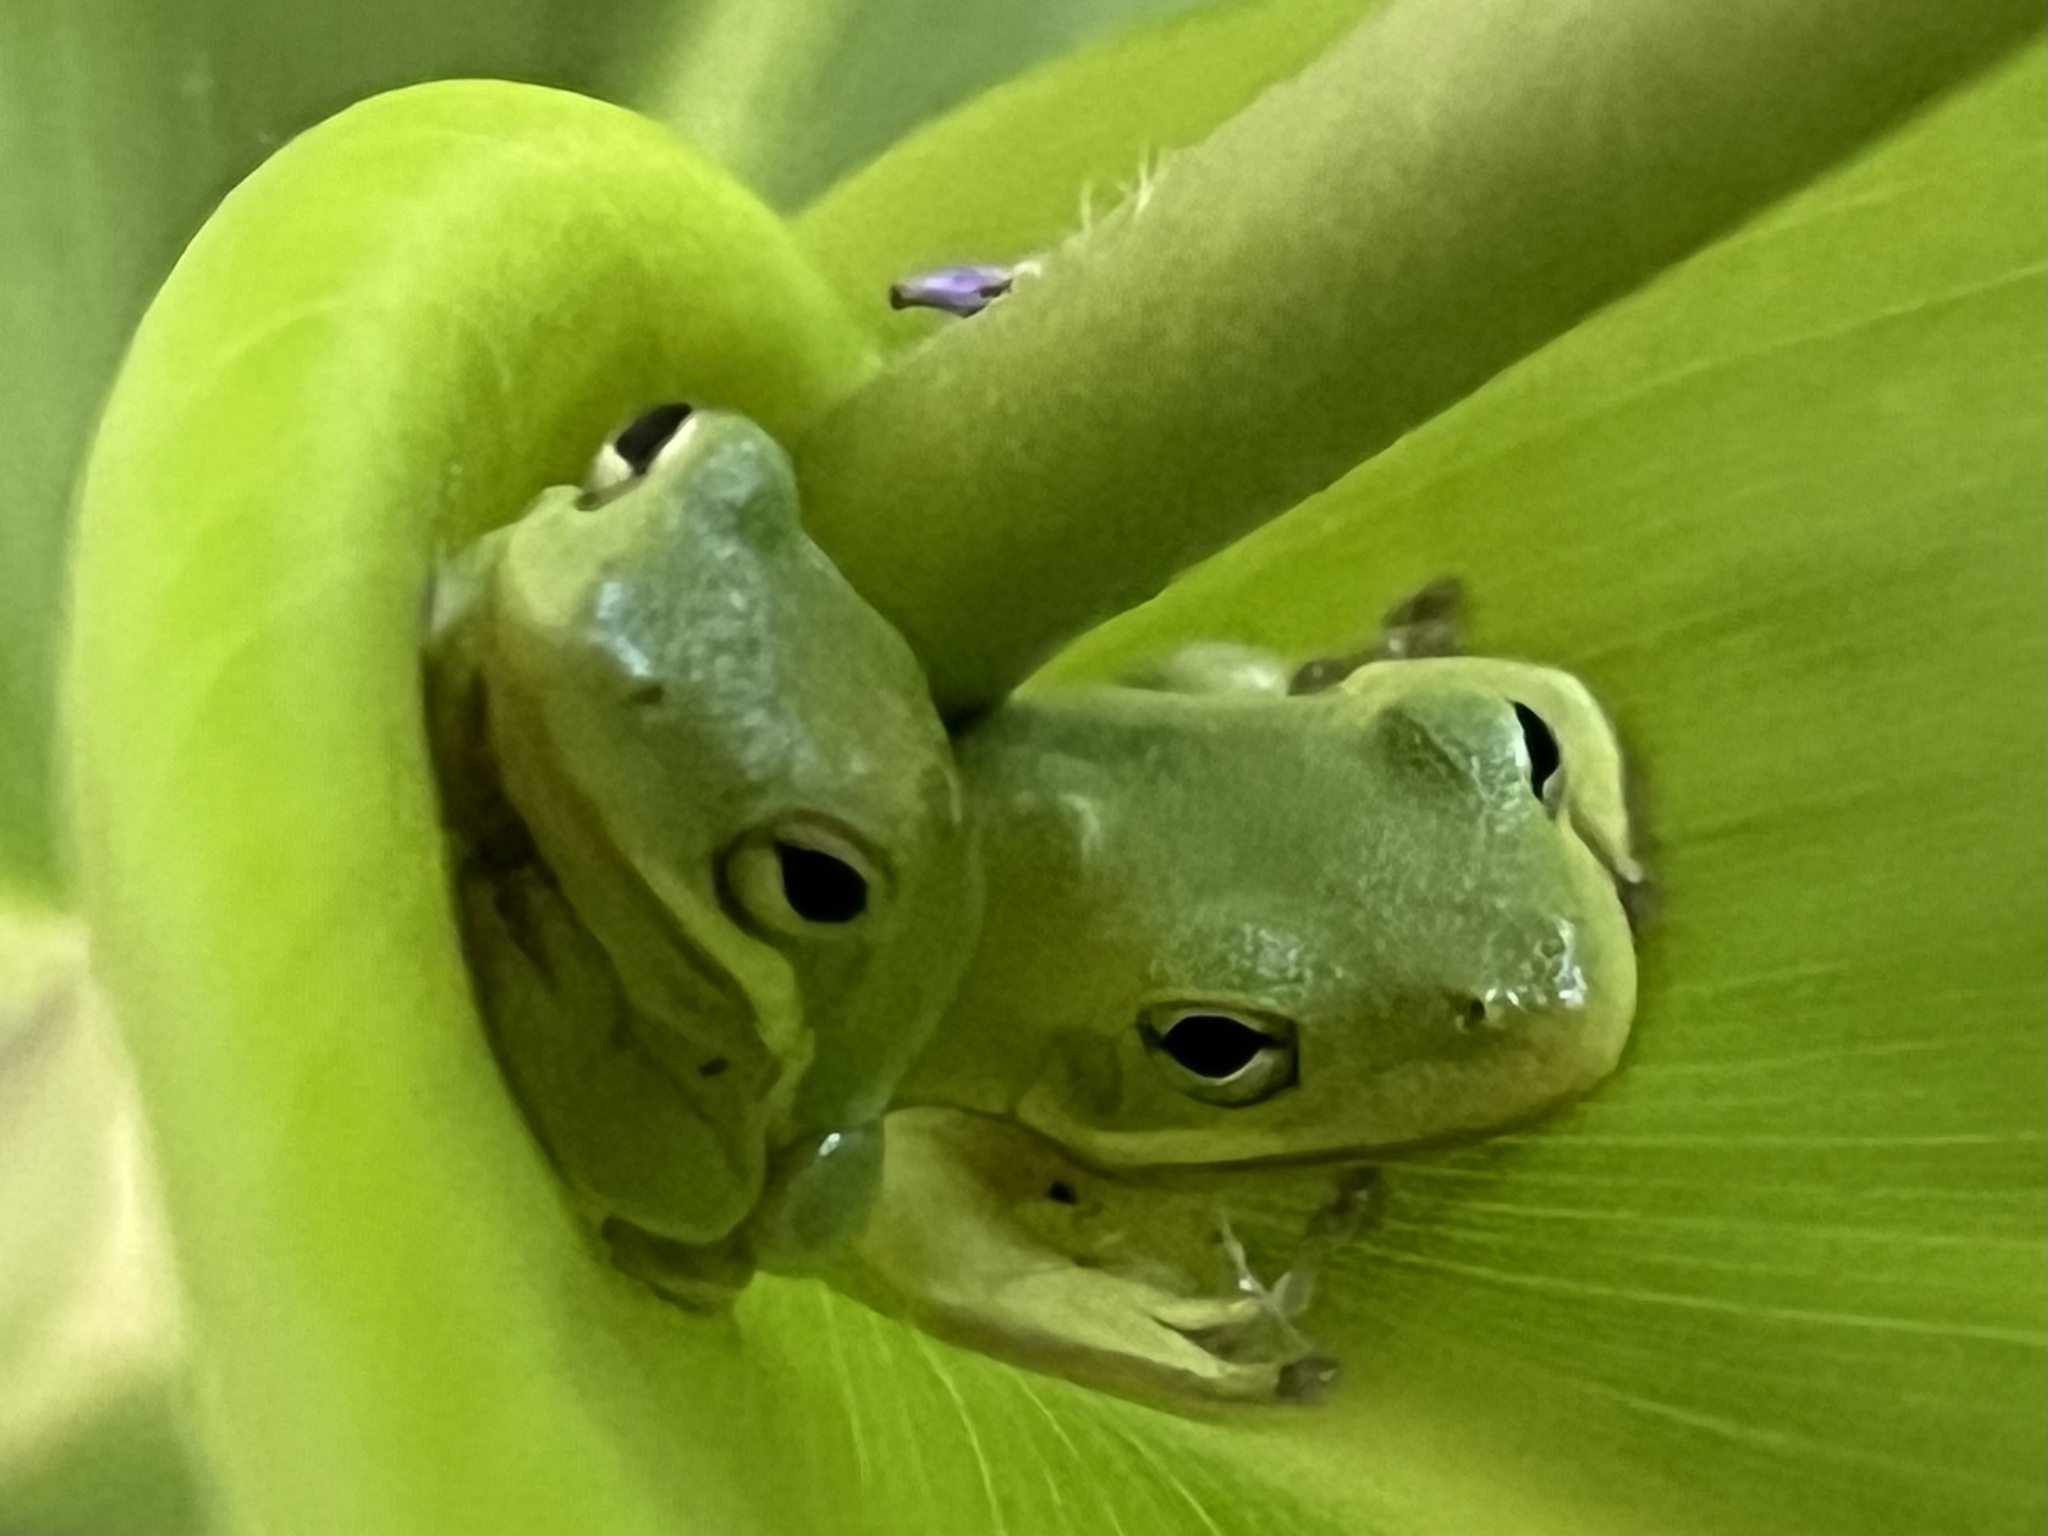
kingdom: Animalia
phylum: Chordata
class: Amphibia
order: Anura
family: Hylidae
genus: Dryophytes
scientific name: Dryophytes cinereus
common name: Green treefrog
